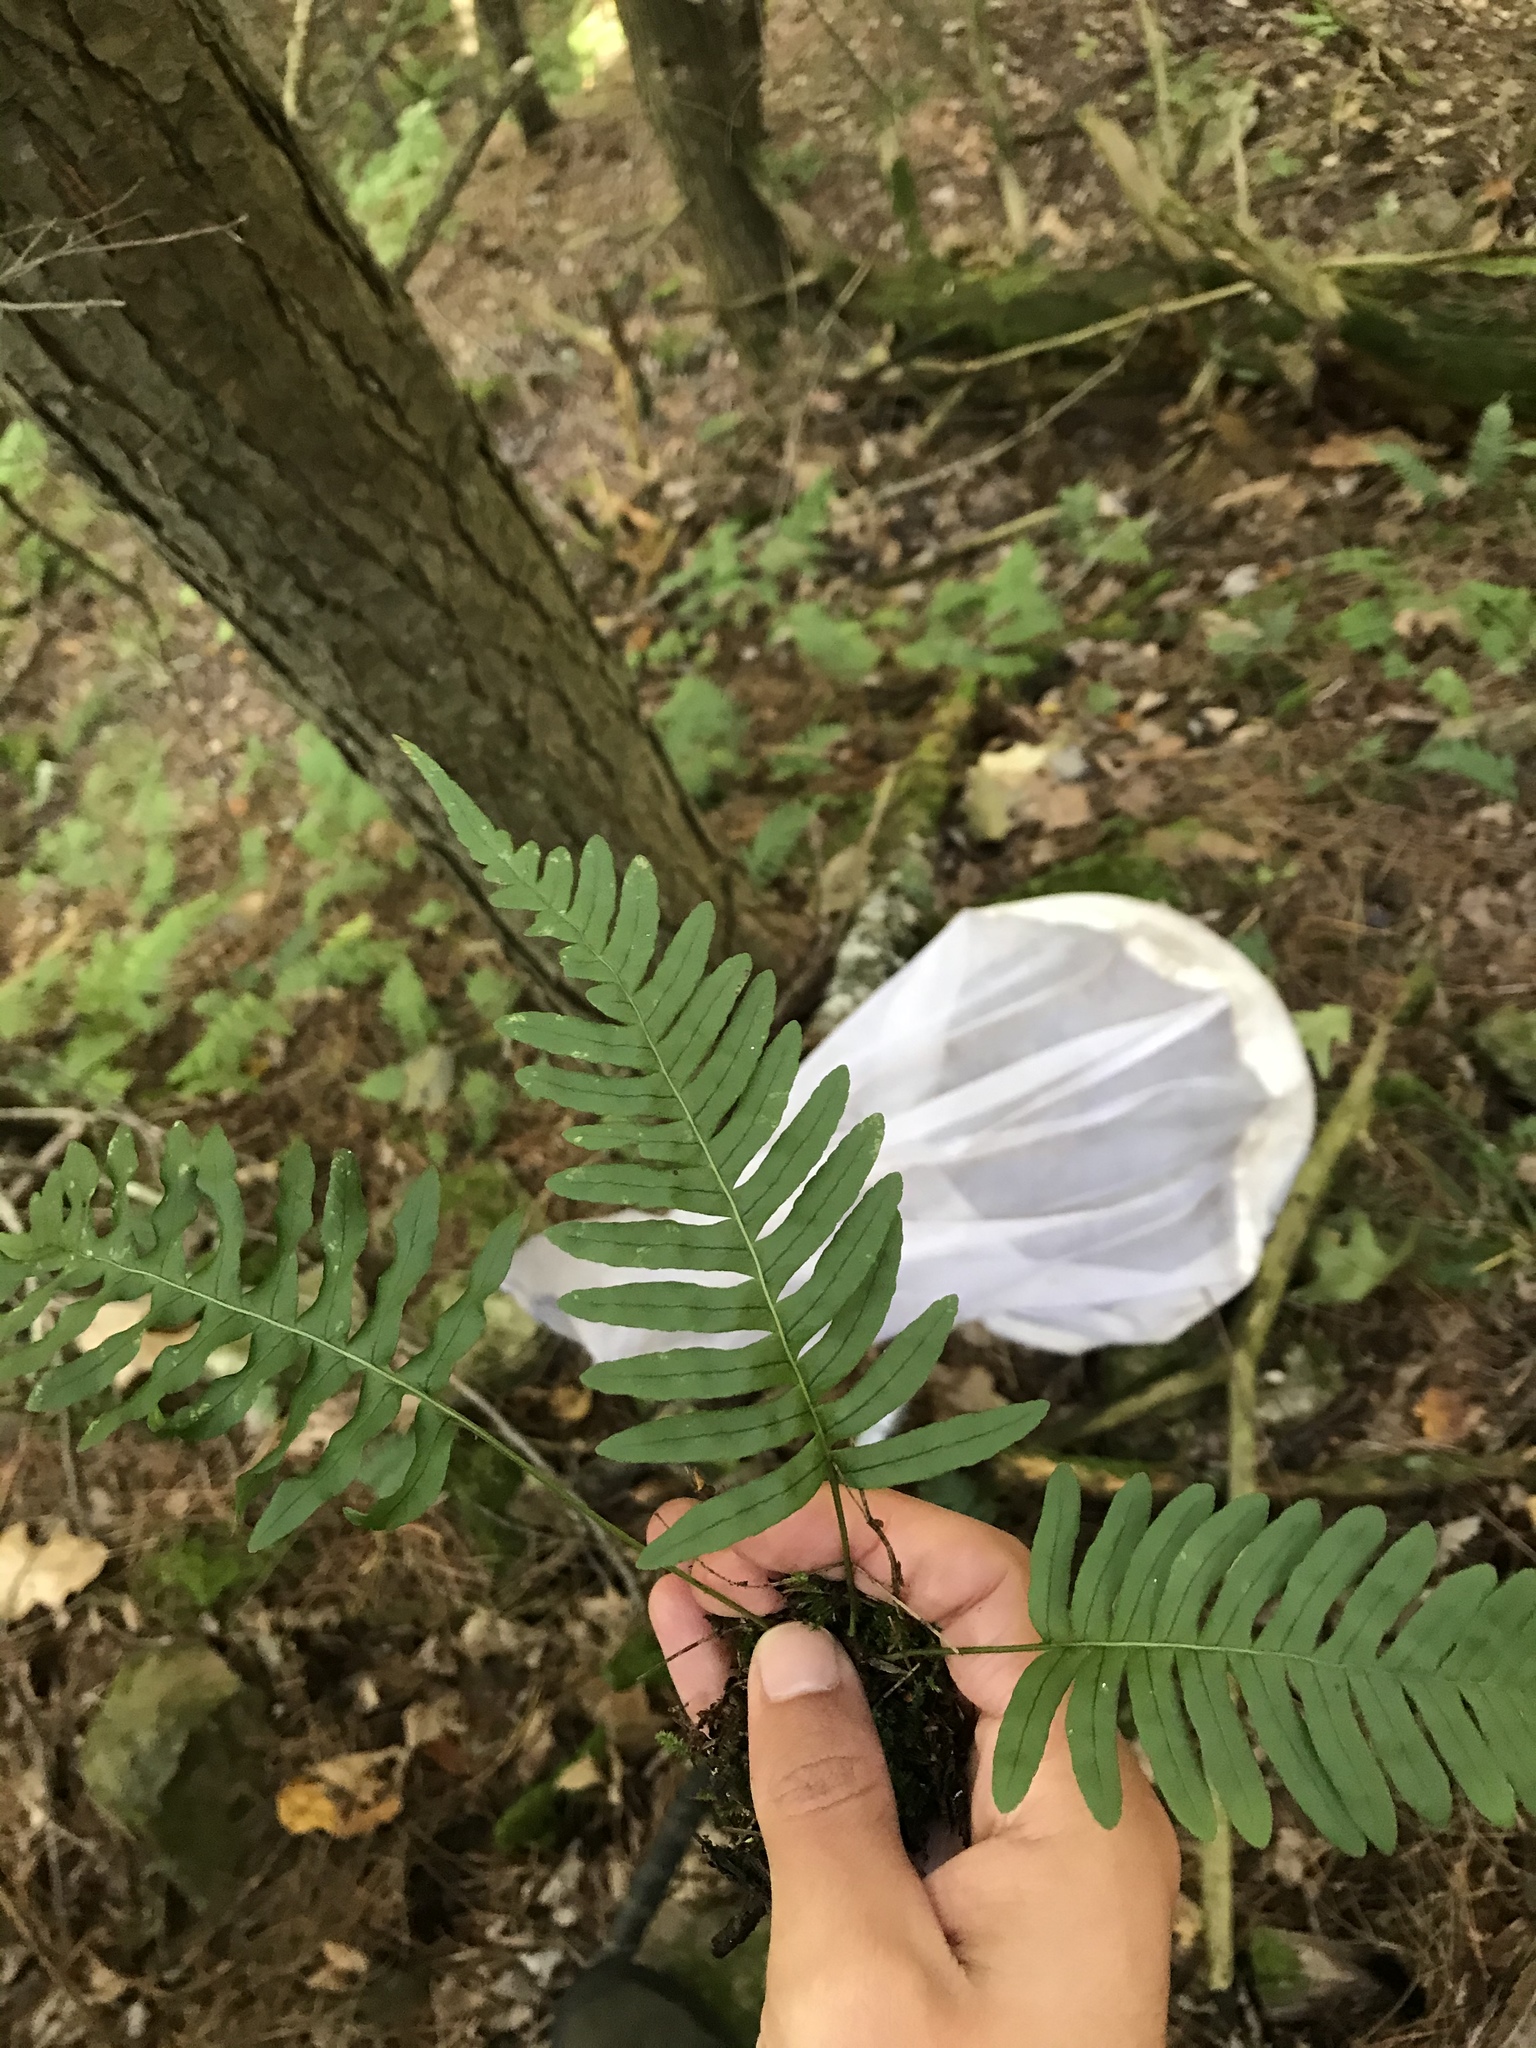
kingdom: Plantae
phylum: Tracheophyta
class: Polypodiopsida
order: Polypodiales
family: Polypodiaceae
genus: Polypodium
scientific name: Polypodium appalachianum
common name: Appalachian polypody
